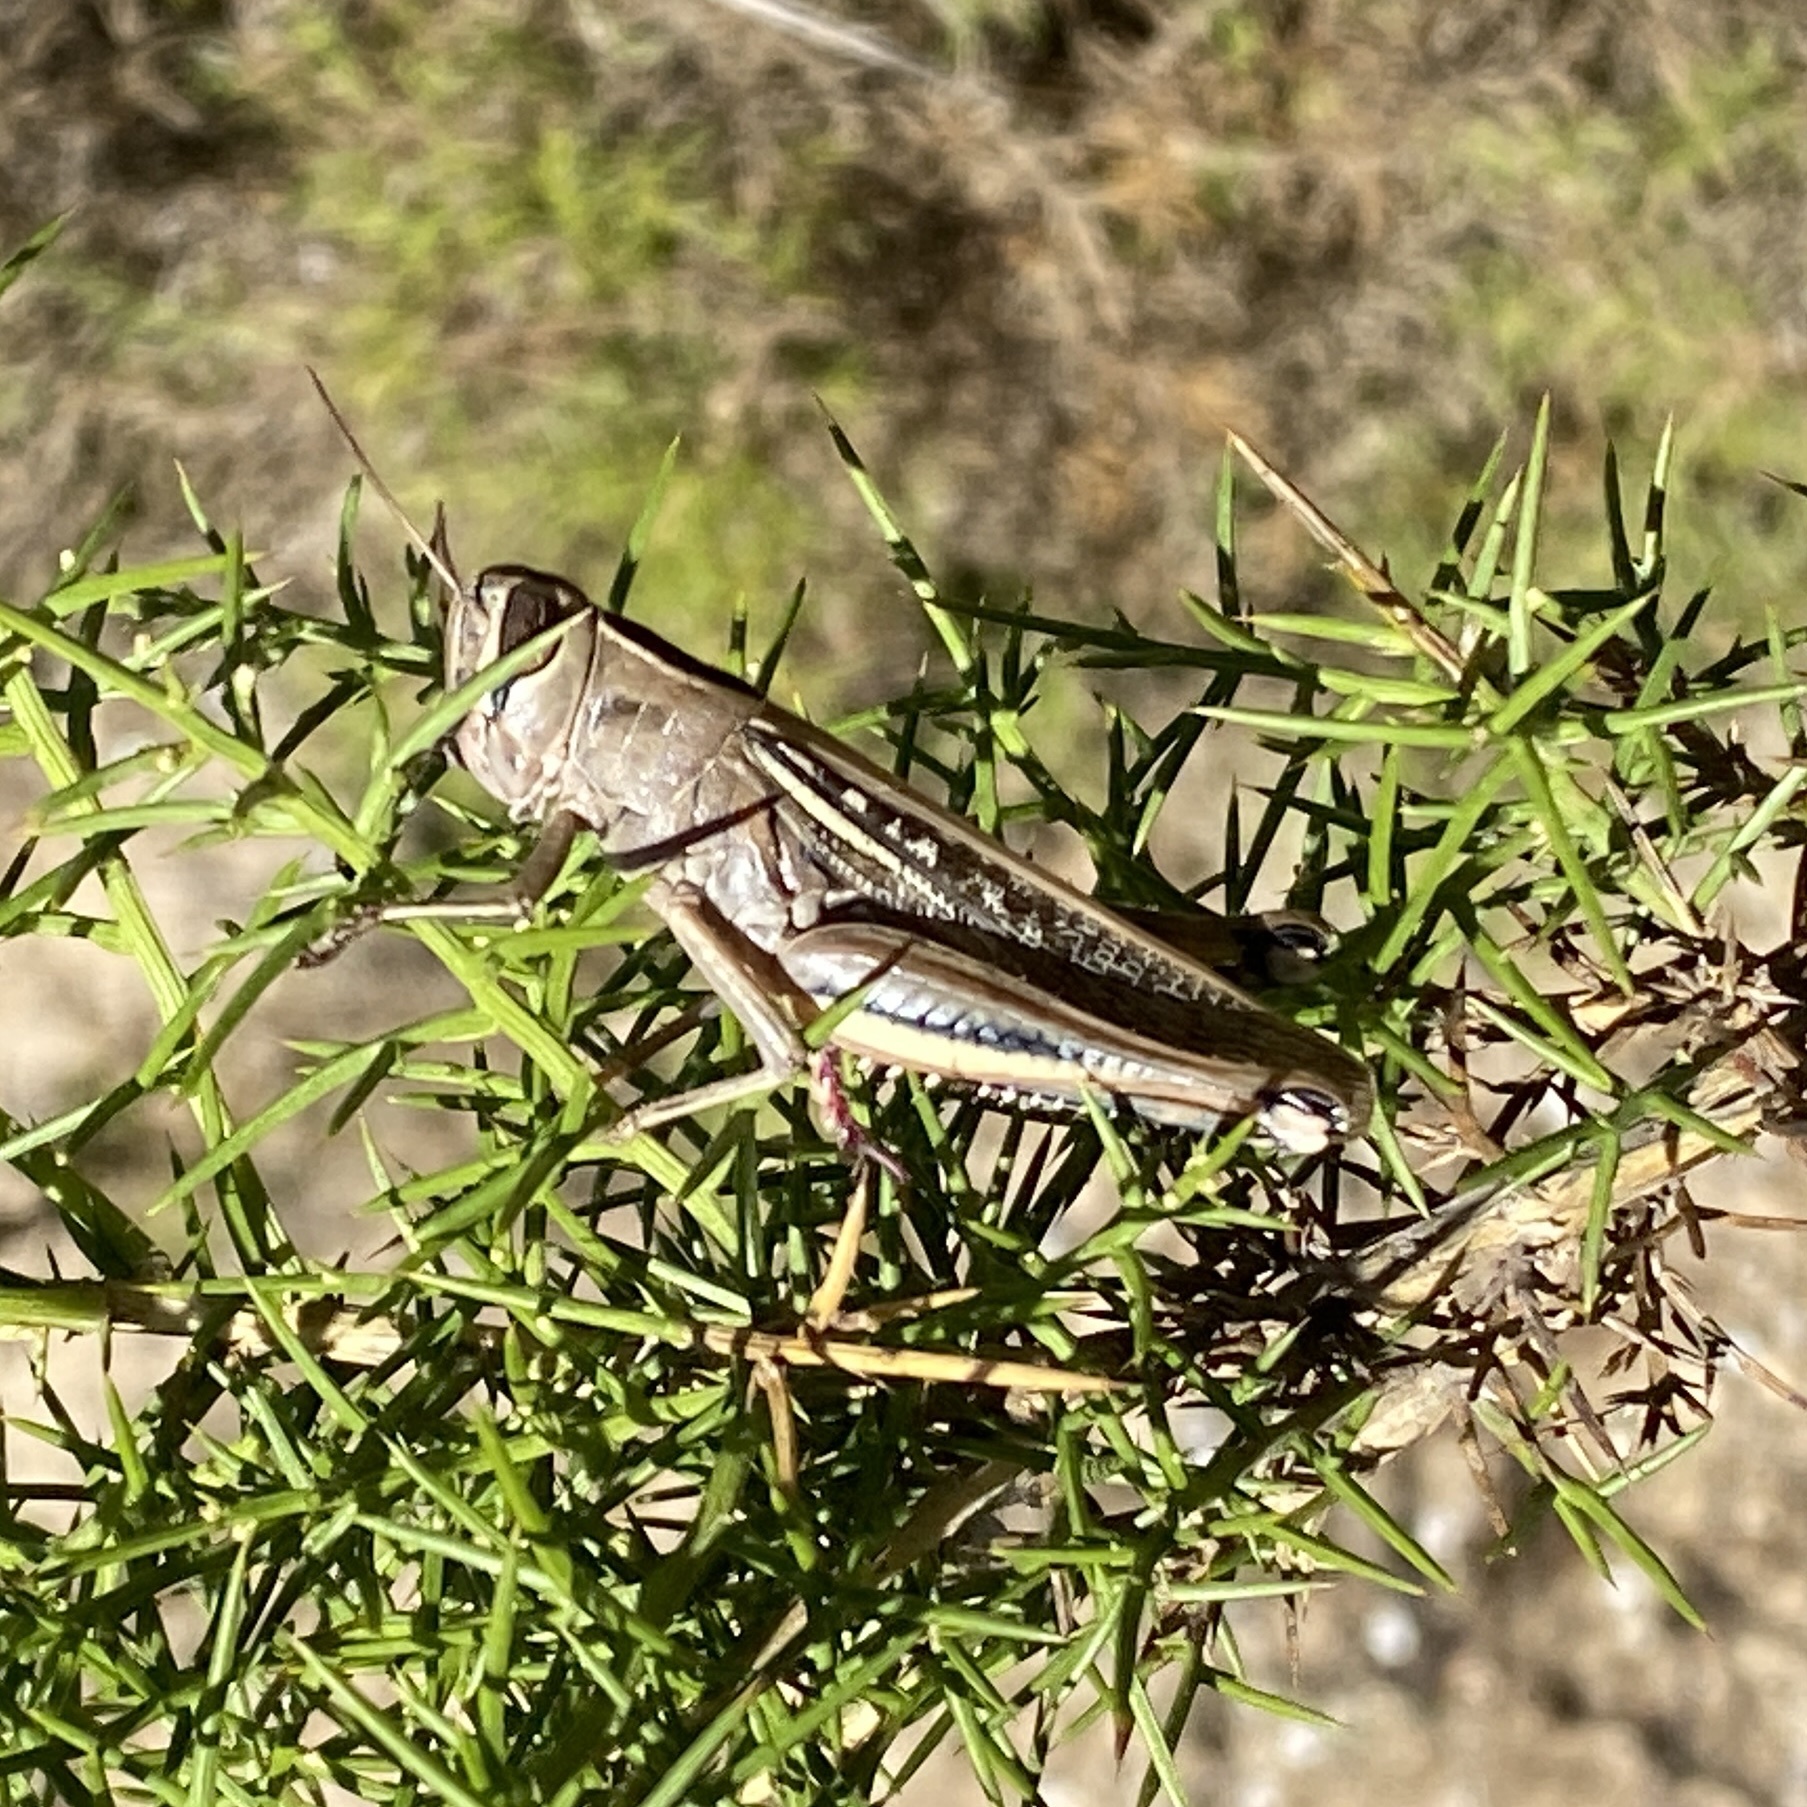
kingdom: Animalia
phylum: Arthropoda
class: Insecta
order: Orthoptera
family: Acrididae
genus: Eyprepocnemis
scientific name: Eyprepocnemis plorans
